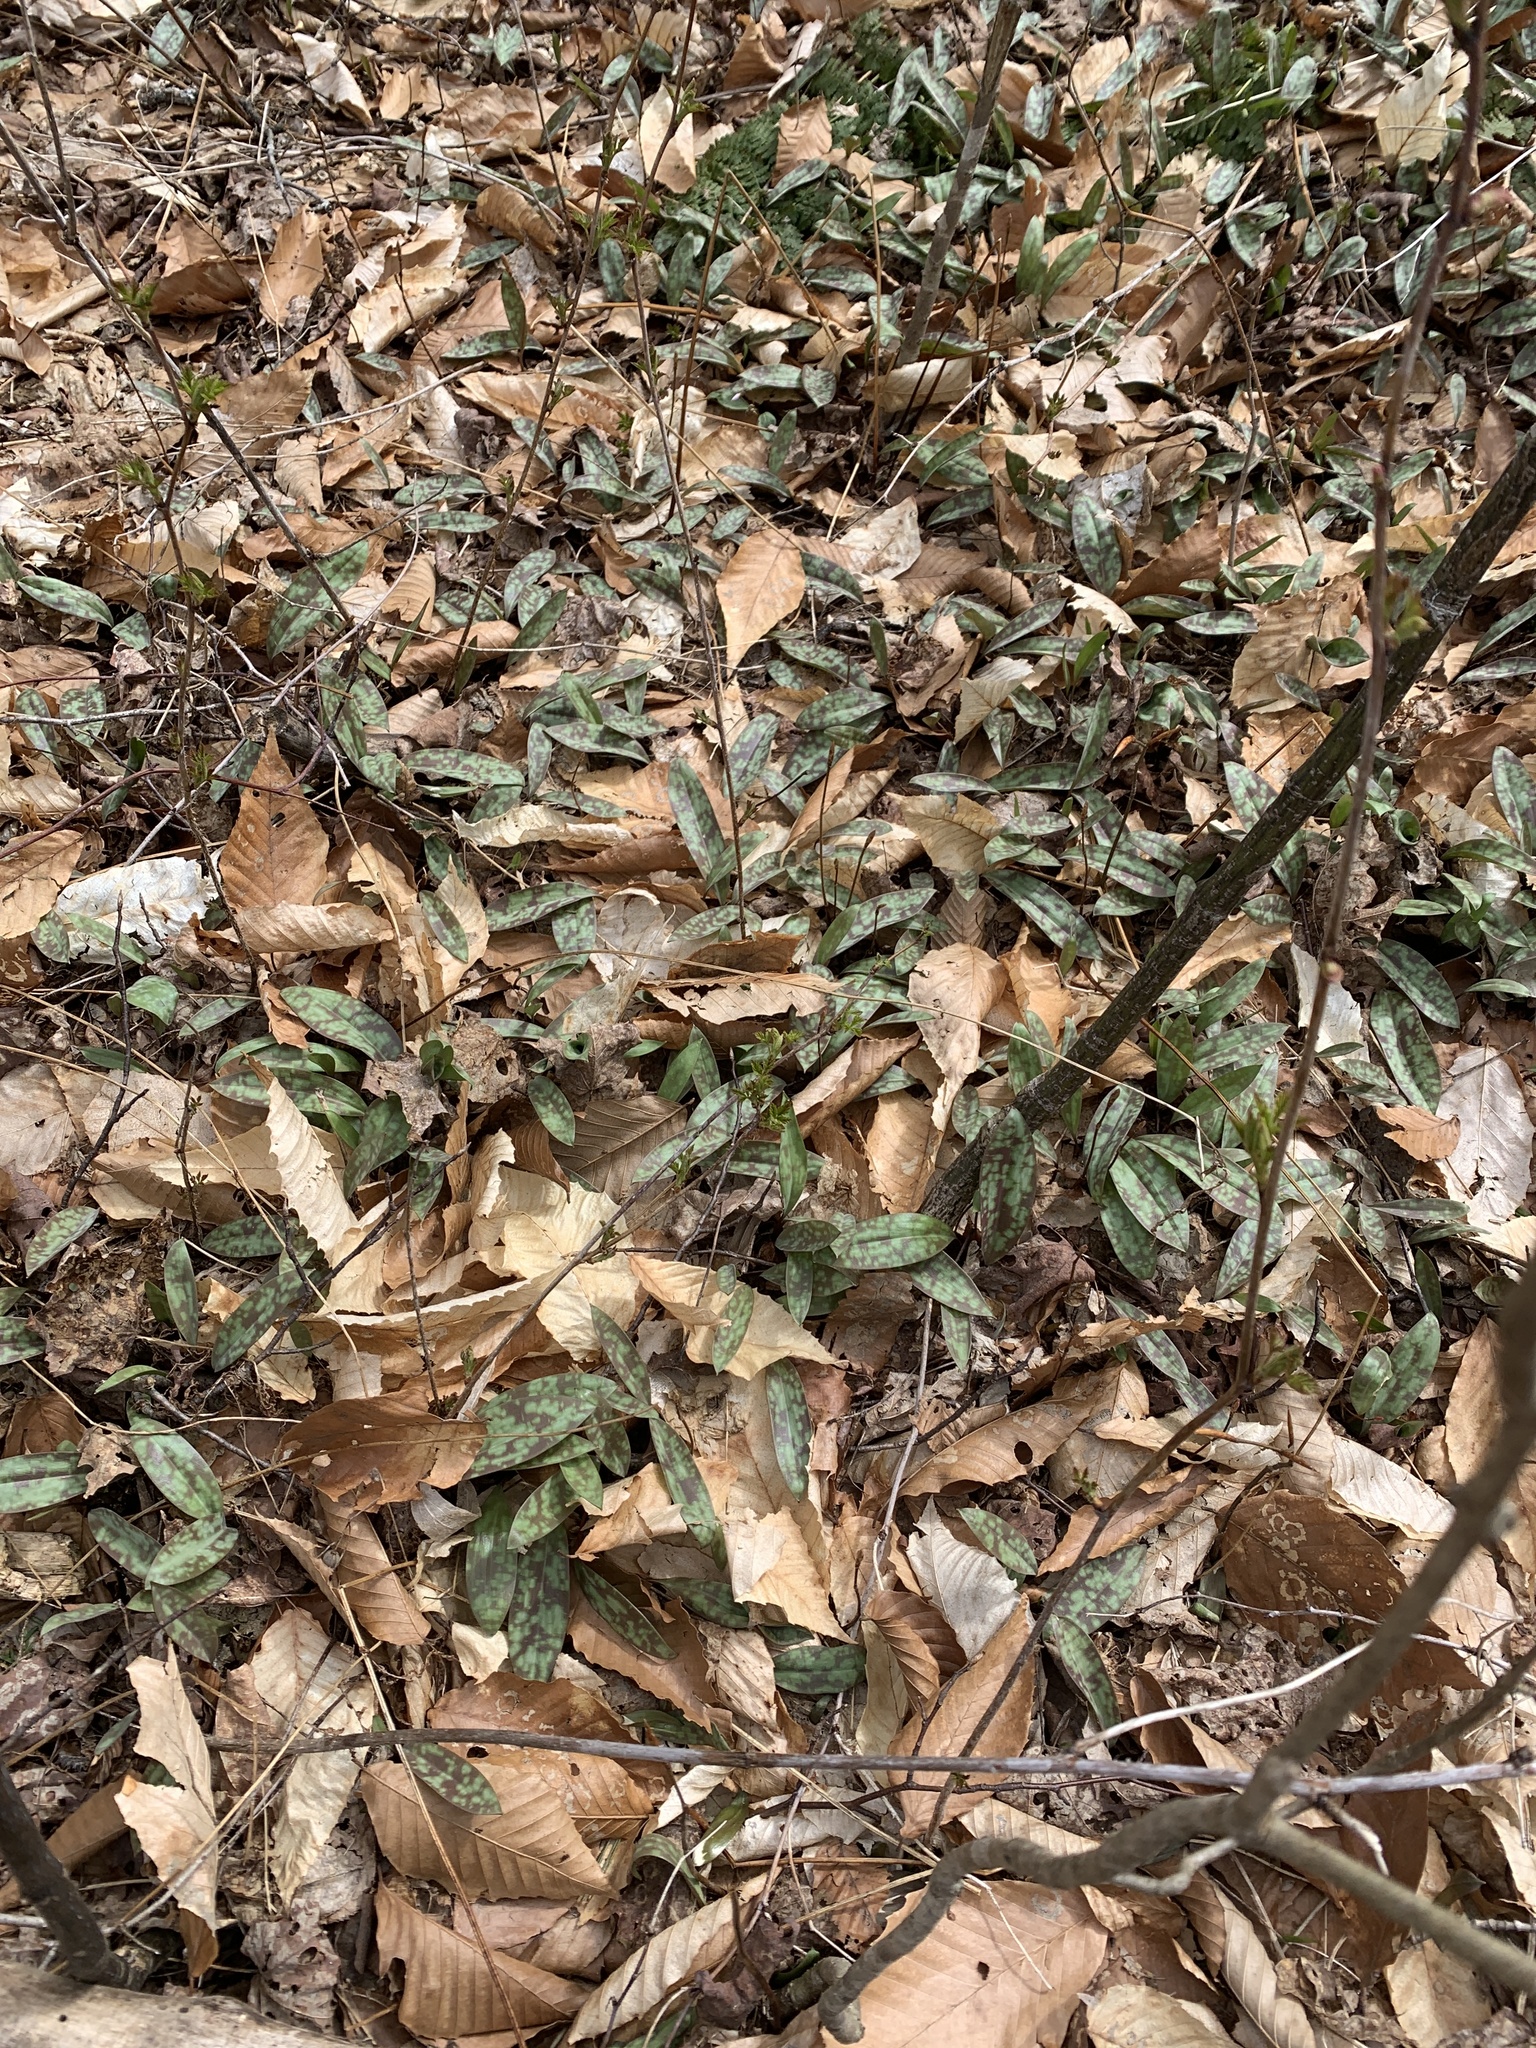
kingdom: Plantae
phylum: Tracheophyta
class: Liliopsida
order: Liliales
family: Liliaceae
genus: Erythronium
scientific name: Erythronium americanum
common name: Yellow adder's-tongue
